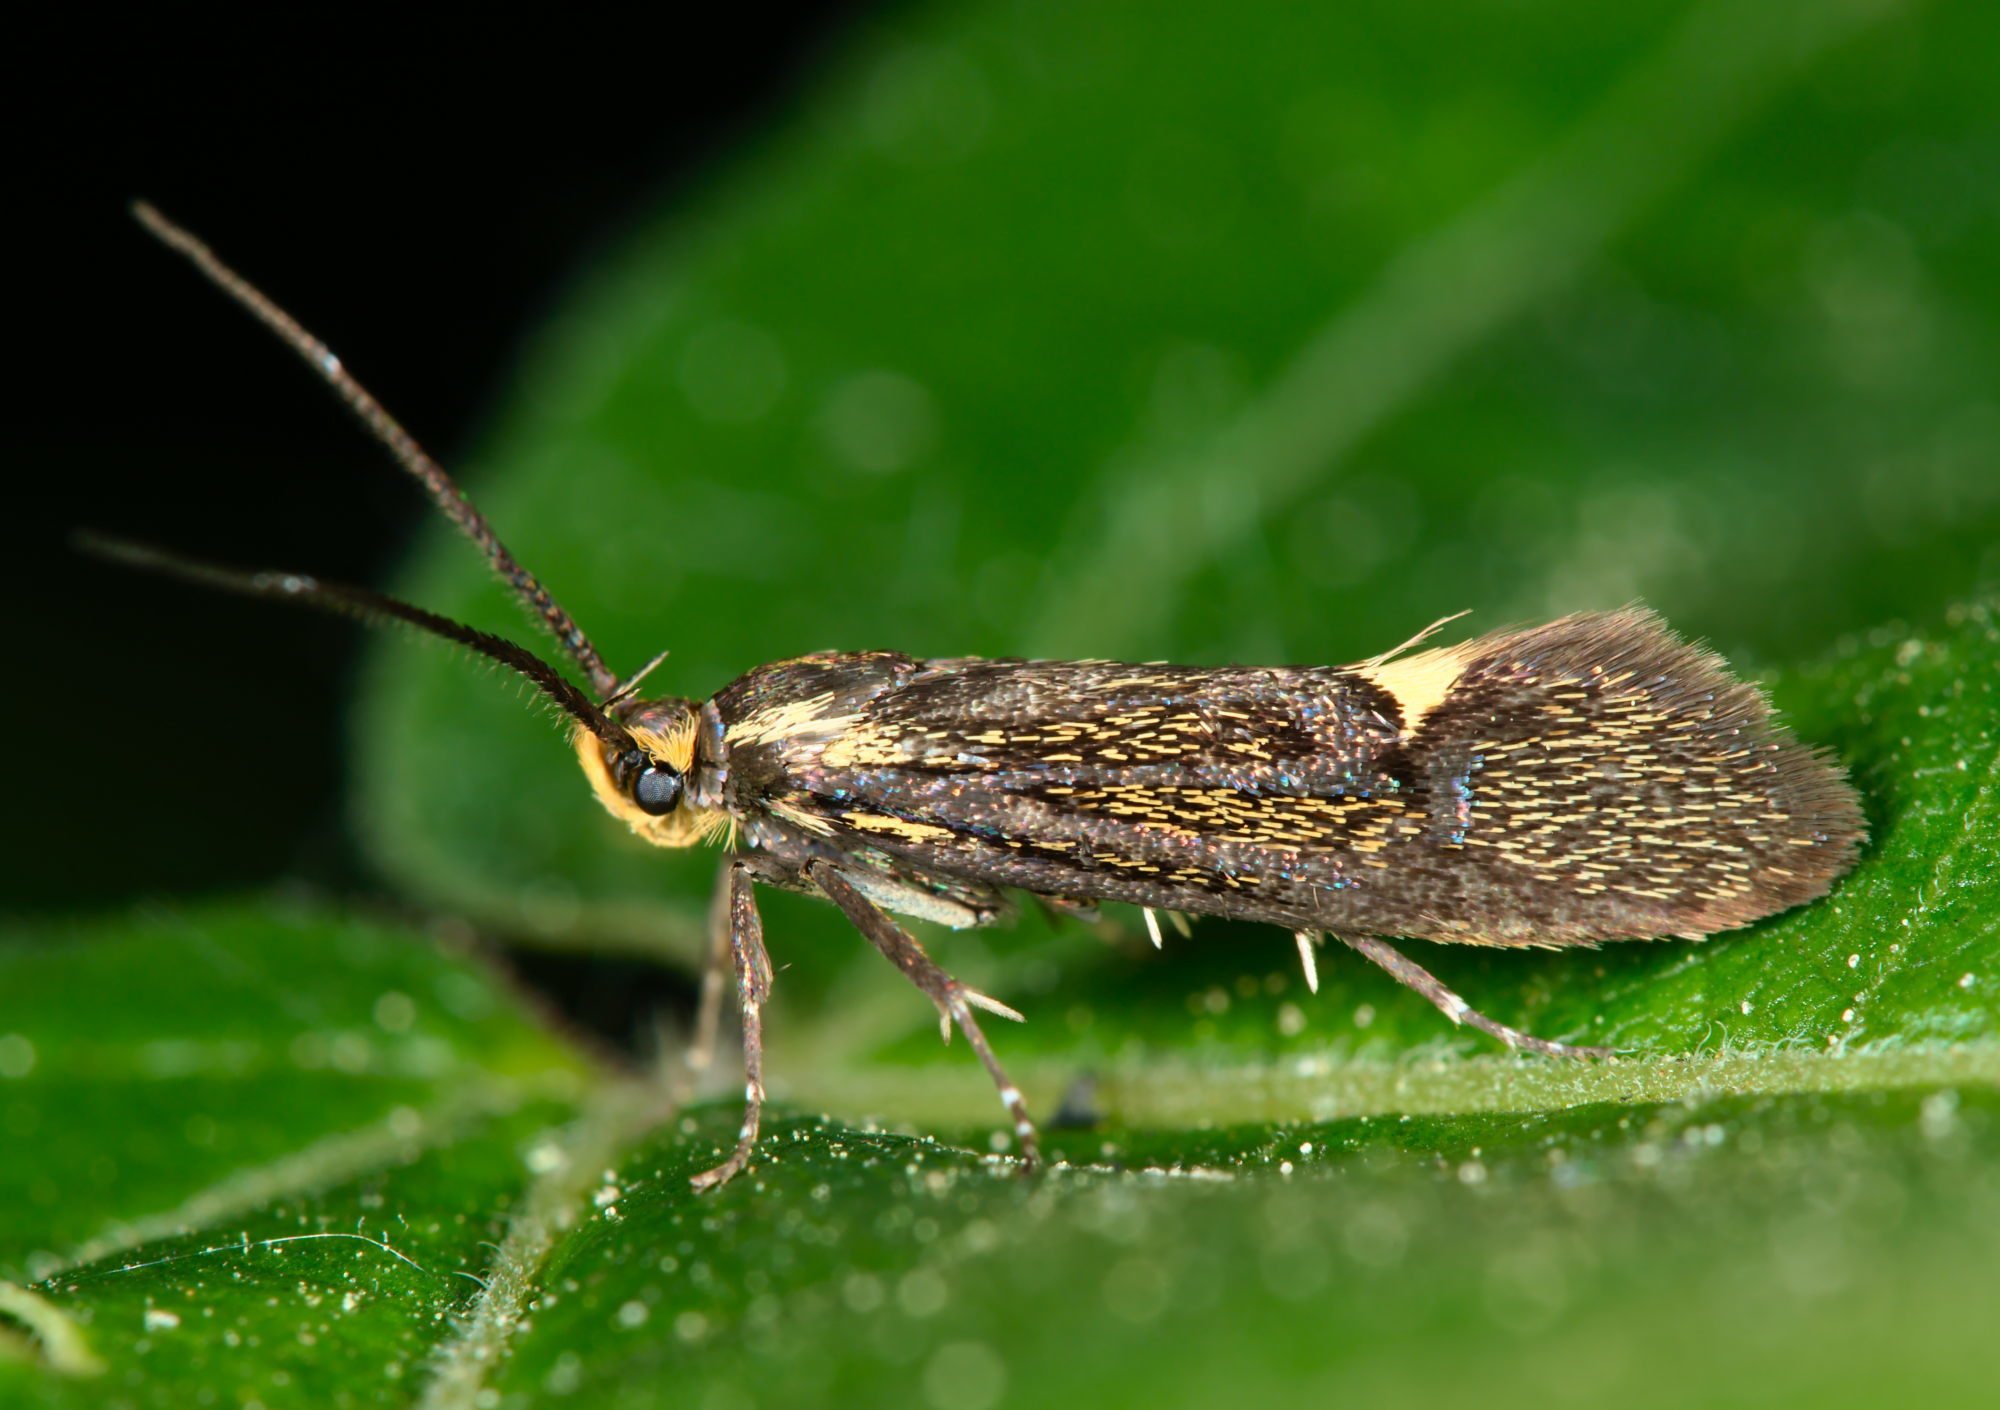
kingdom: Animalia
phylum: Arthropoda
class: Insecta
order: Lepidoptera
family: Oecophoridae
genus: Dafa
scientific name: Dafa Esperia sulphurella
